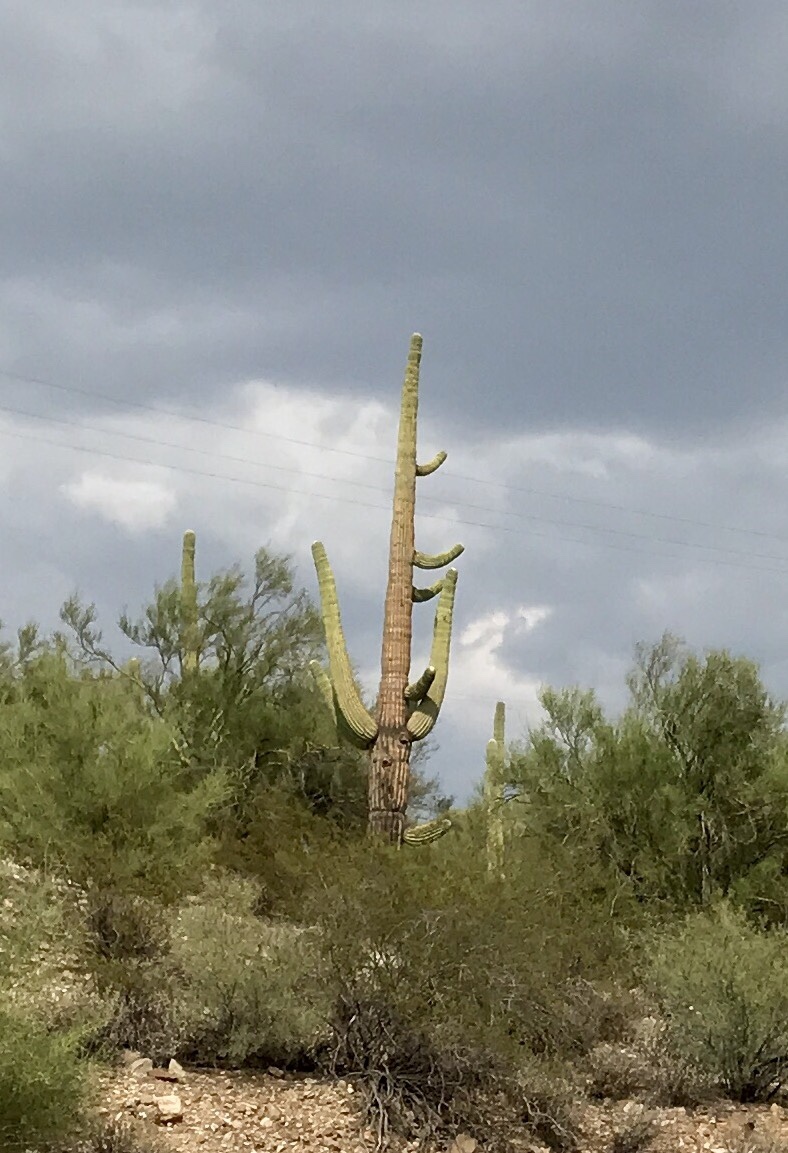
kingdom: Plantae
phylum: Tracheophyta
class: Magnoliopsida
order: Caryophyllales
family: Cactaceae
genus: Carnegiea
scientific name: Carnegiea gigantea
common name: Saguaro
